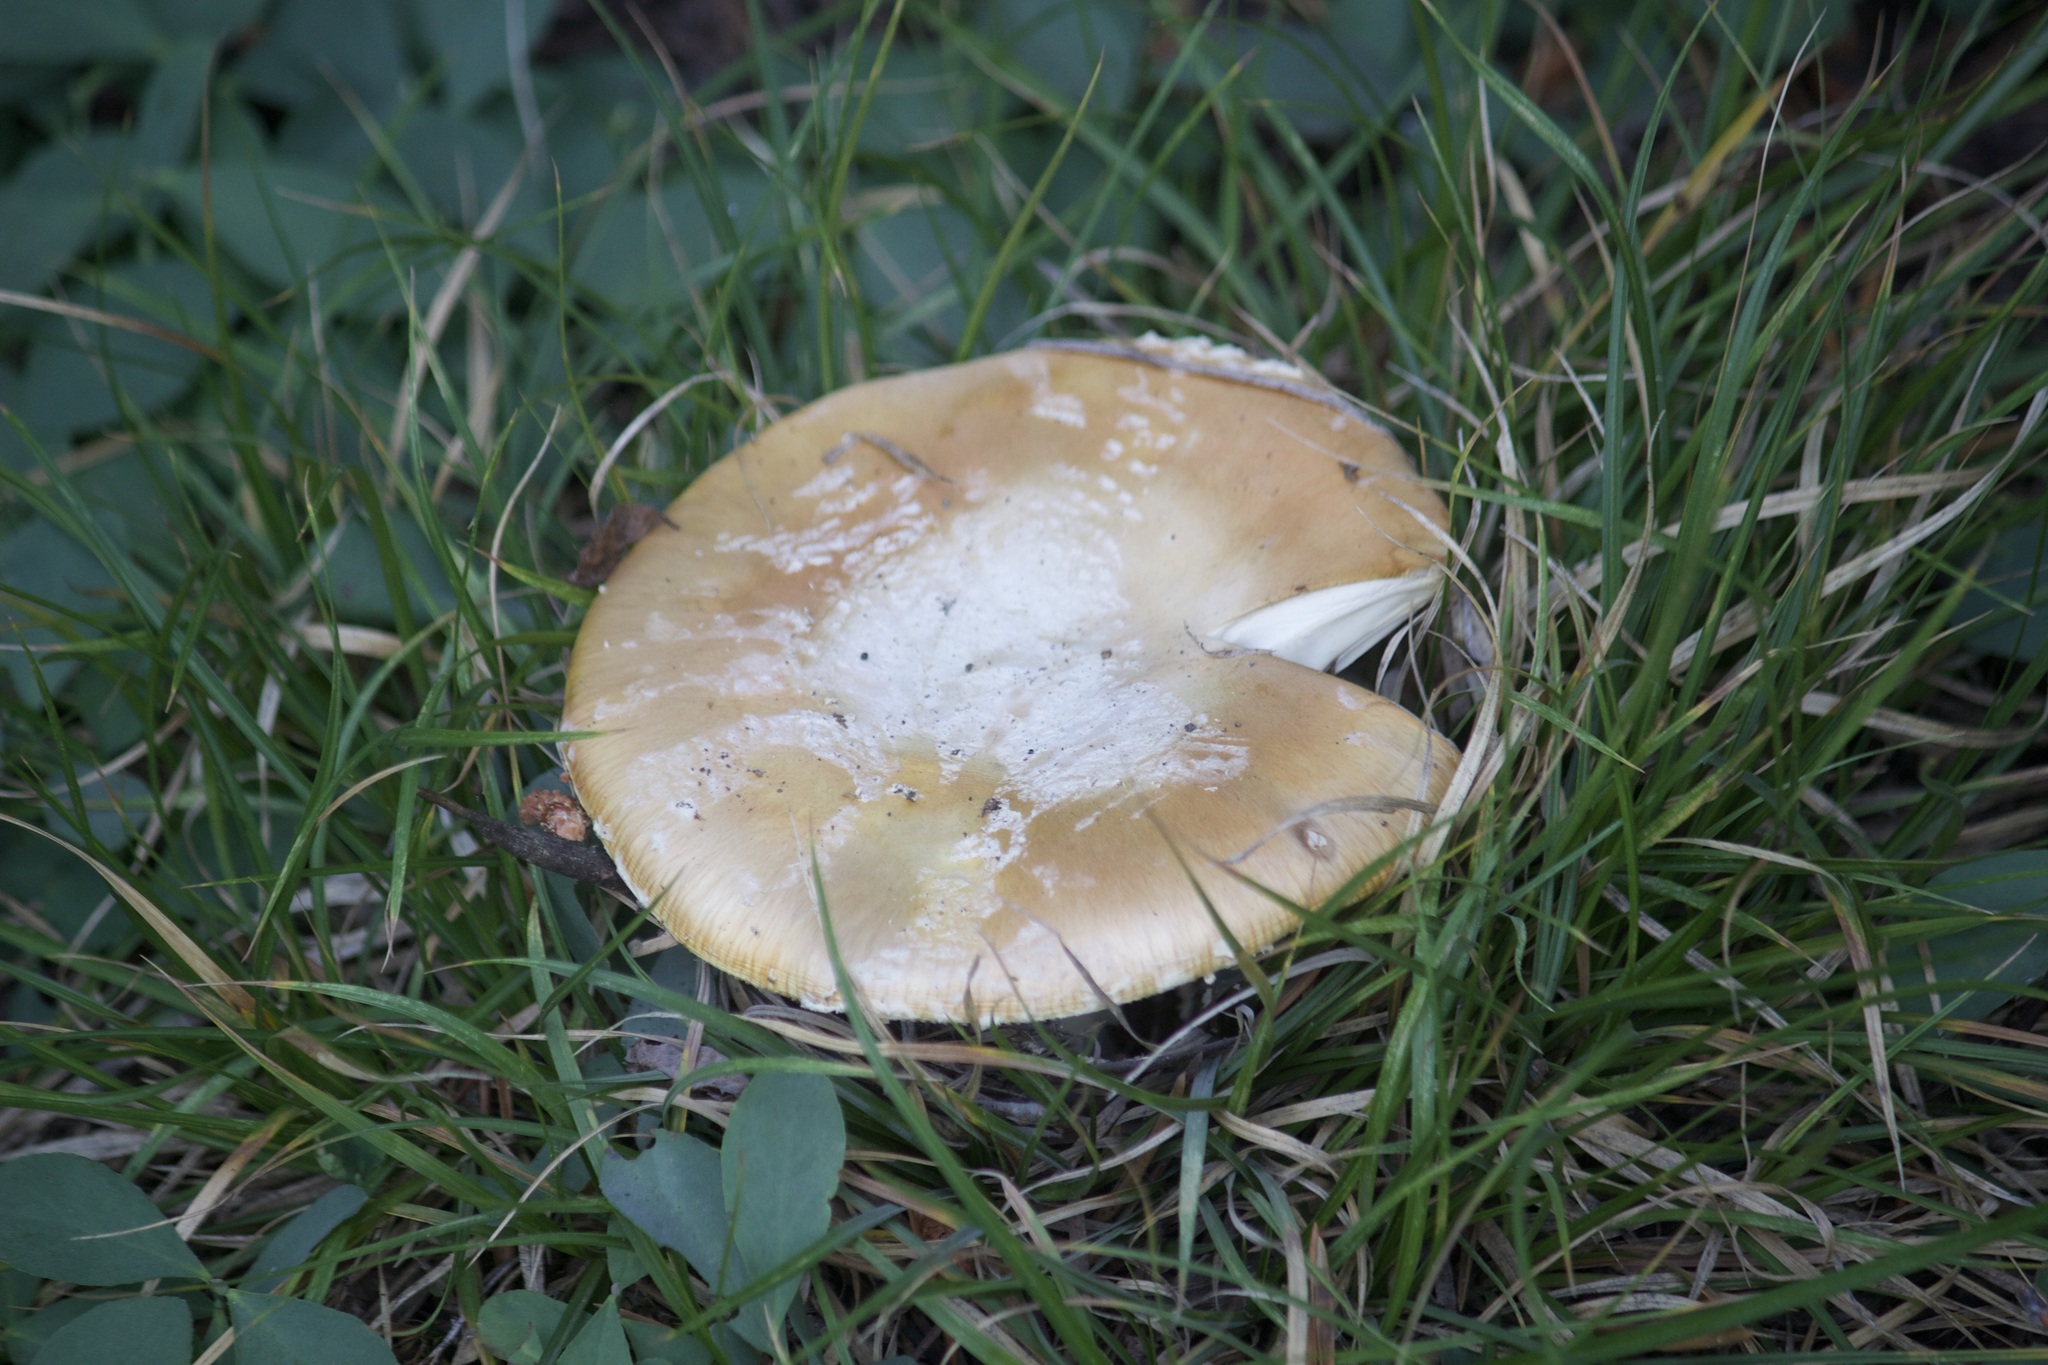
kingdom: Fungi
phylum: Basidiomycota
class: Agaricomycetes
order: Agaricales
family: Amanitaceae
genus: Amanita
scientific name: Amanita muscaria
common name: Fly agaric
